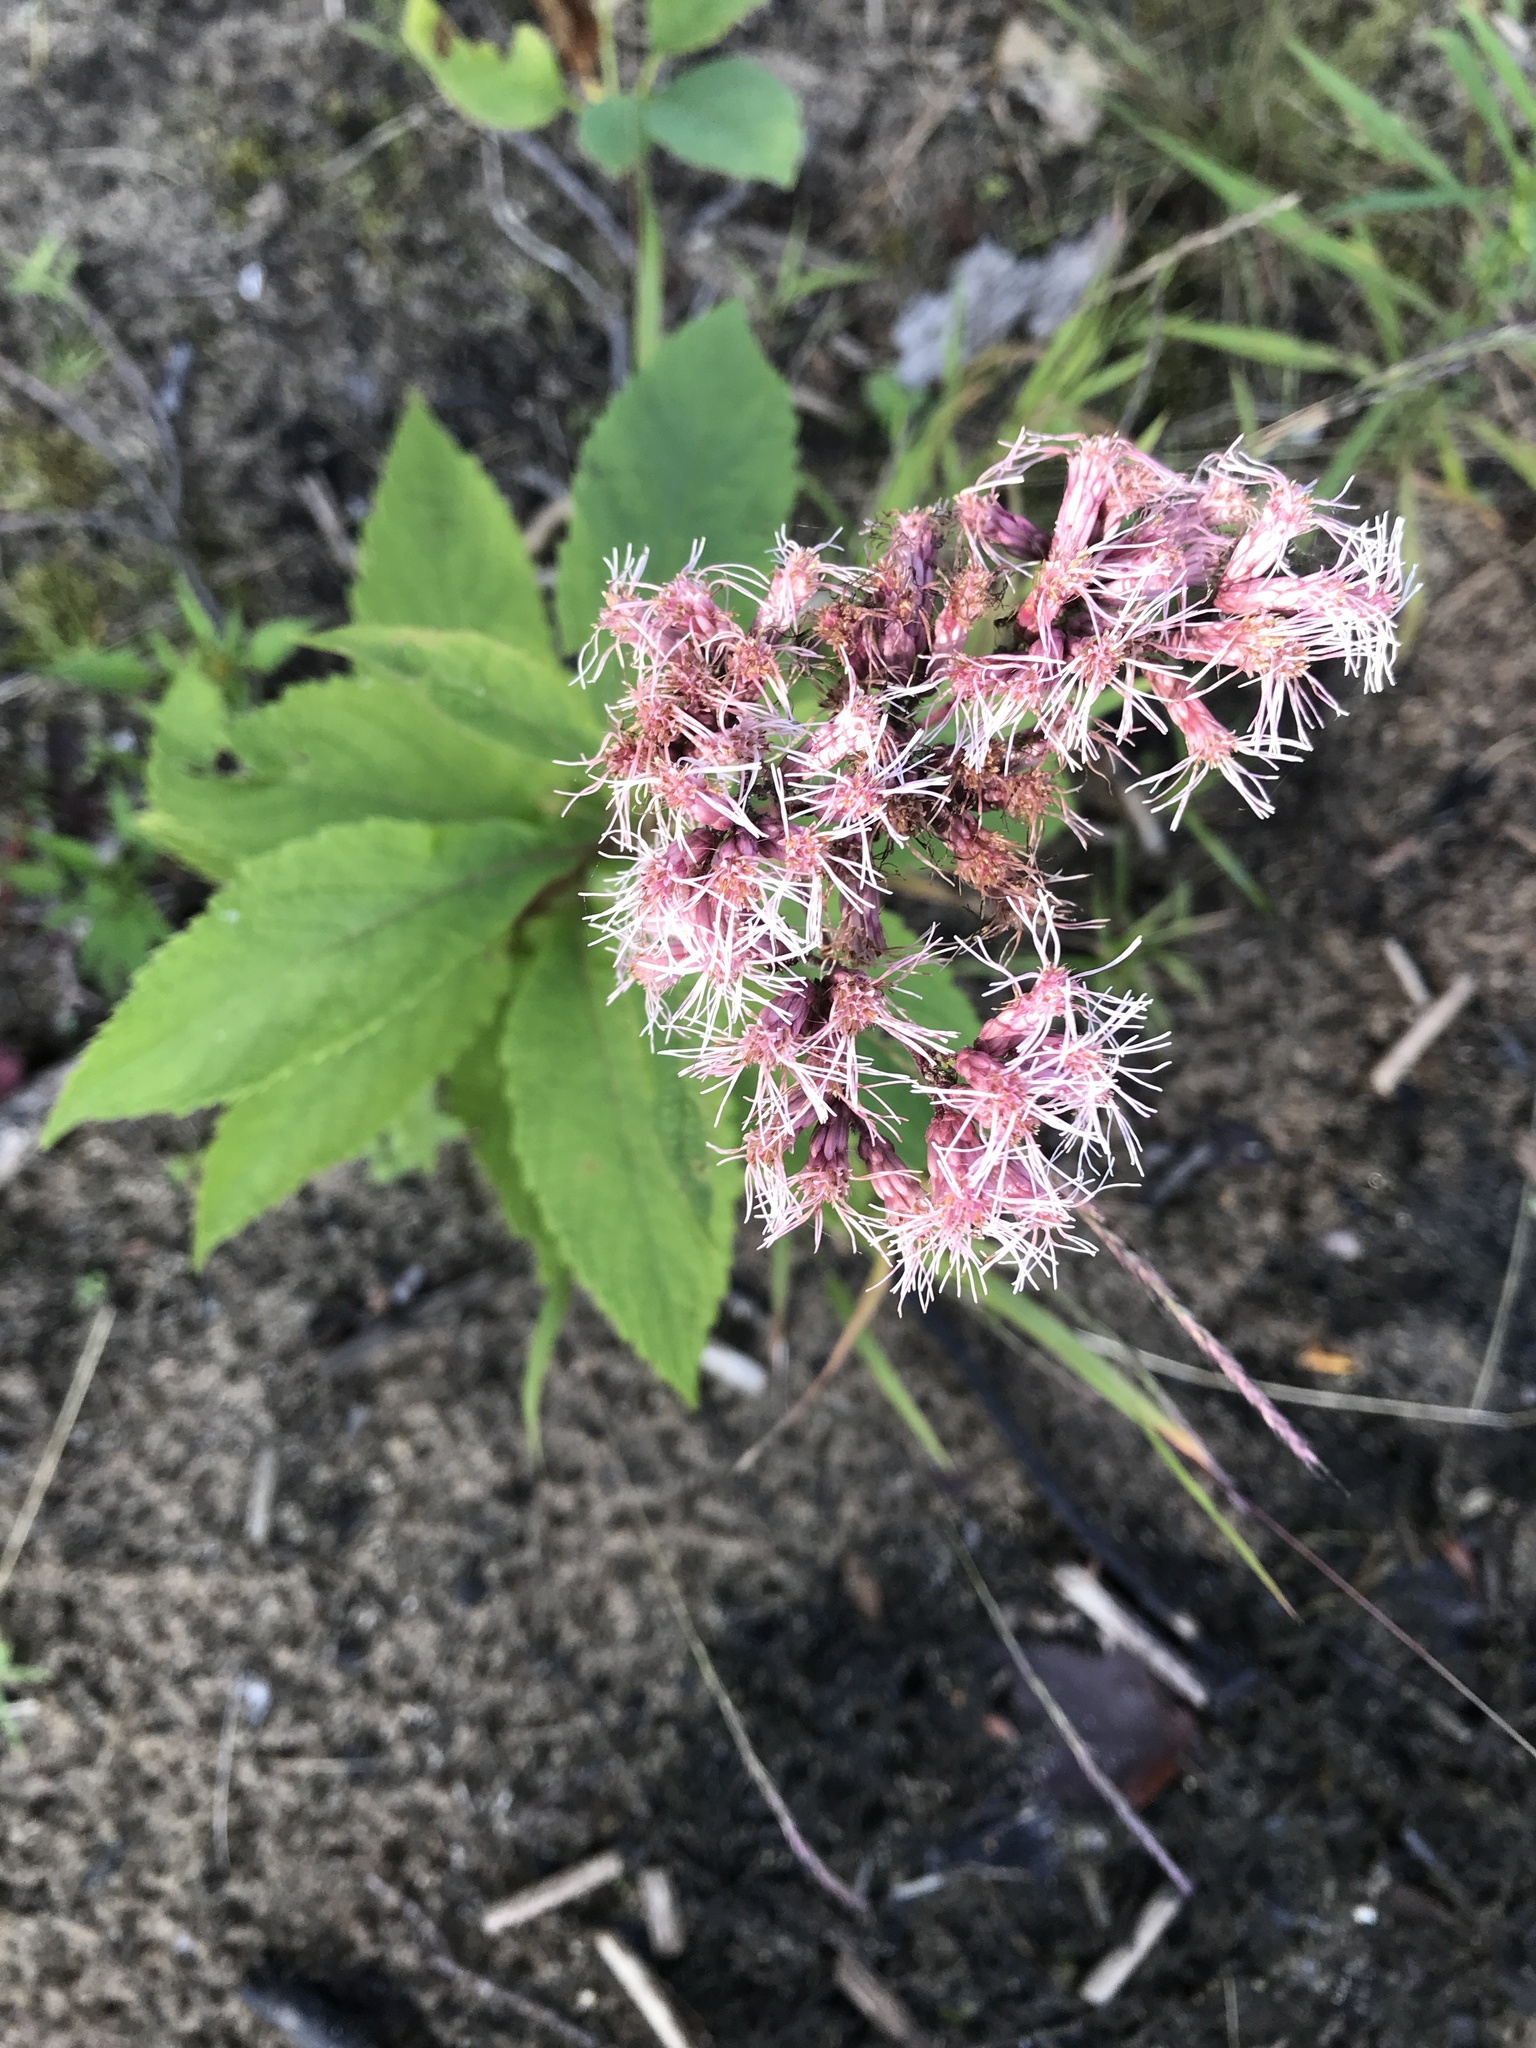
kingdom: Plantae
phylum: Tracheophyta
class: Magnoliopsida
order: Asterales
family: Asteraceae
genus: Eutrochium
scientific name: Eutrochium maculatum
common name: Spotted joe pye weed
